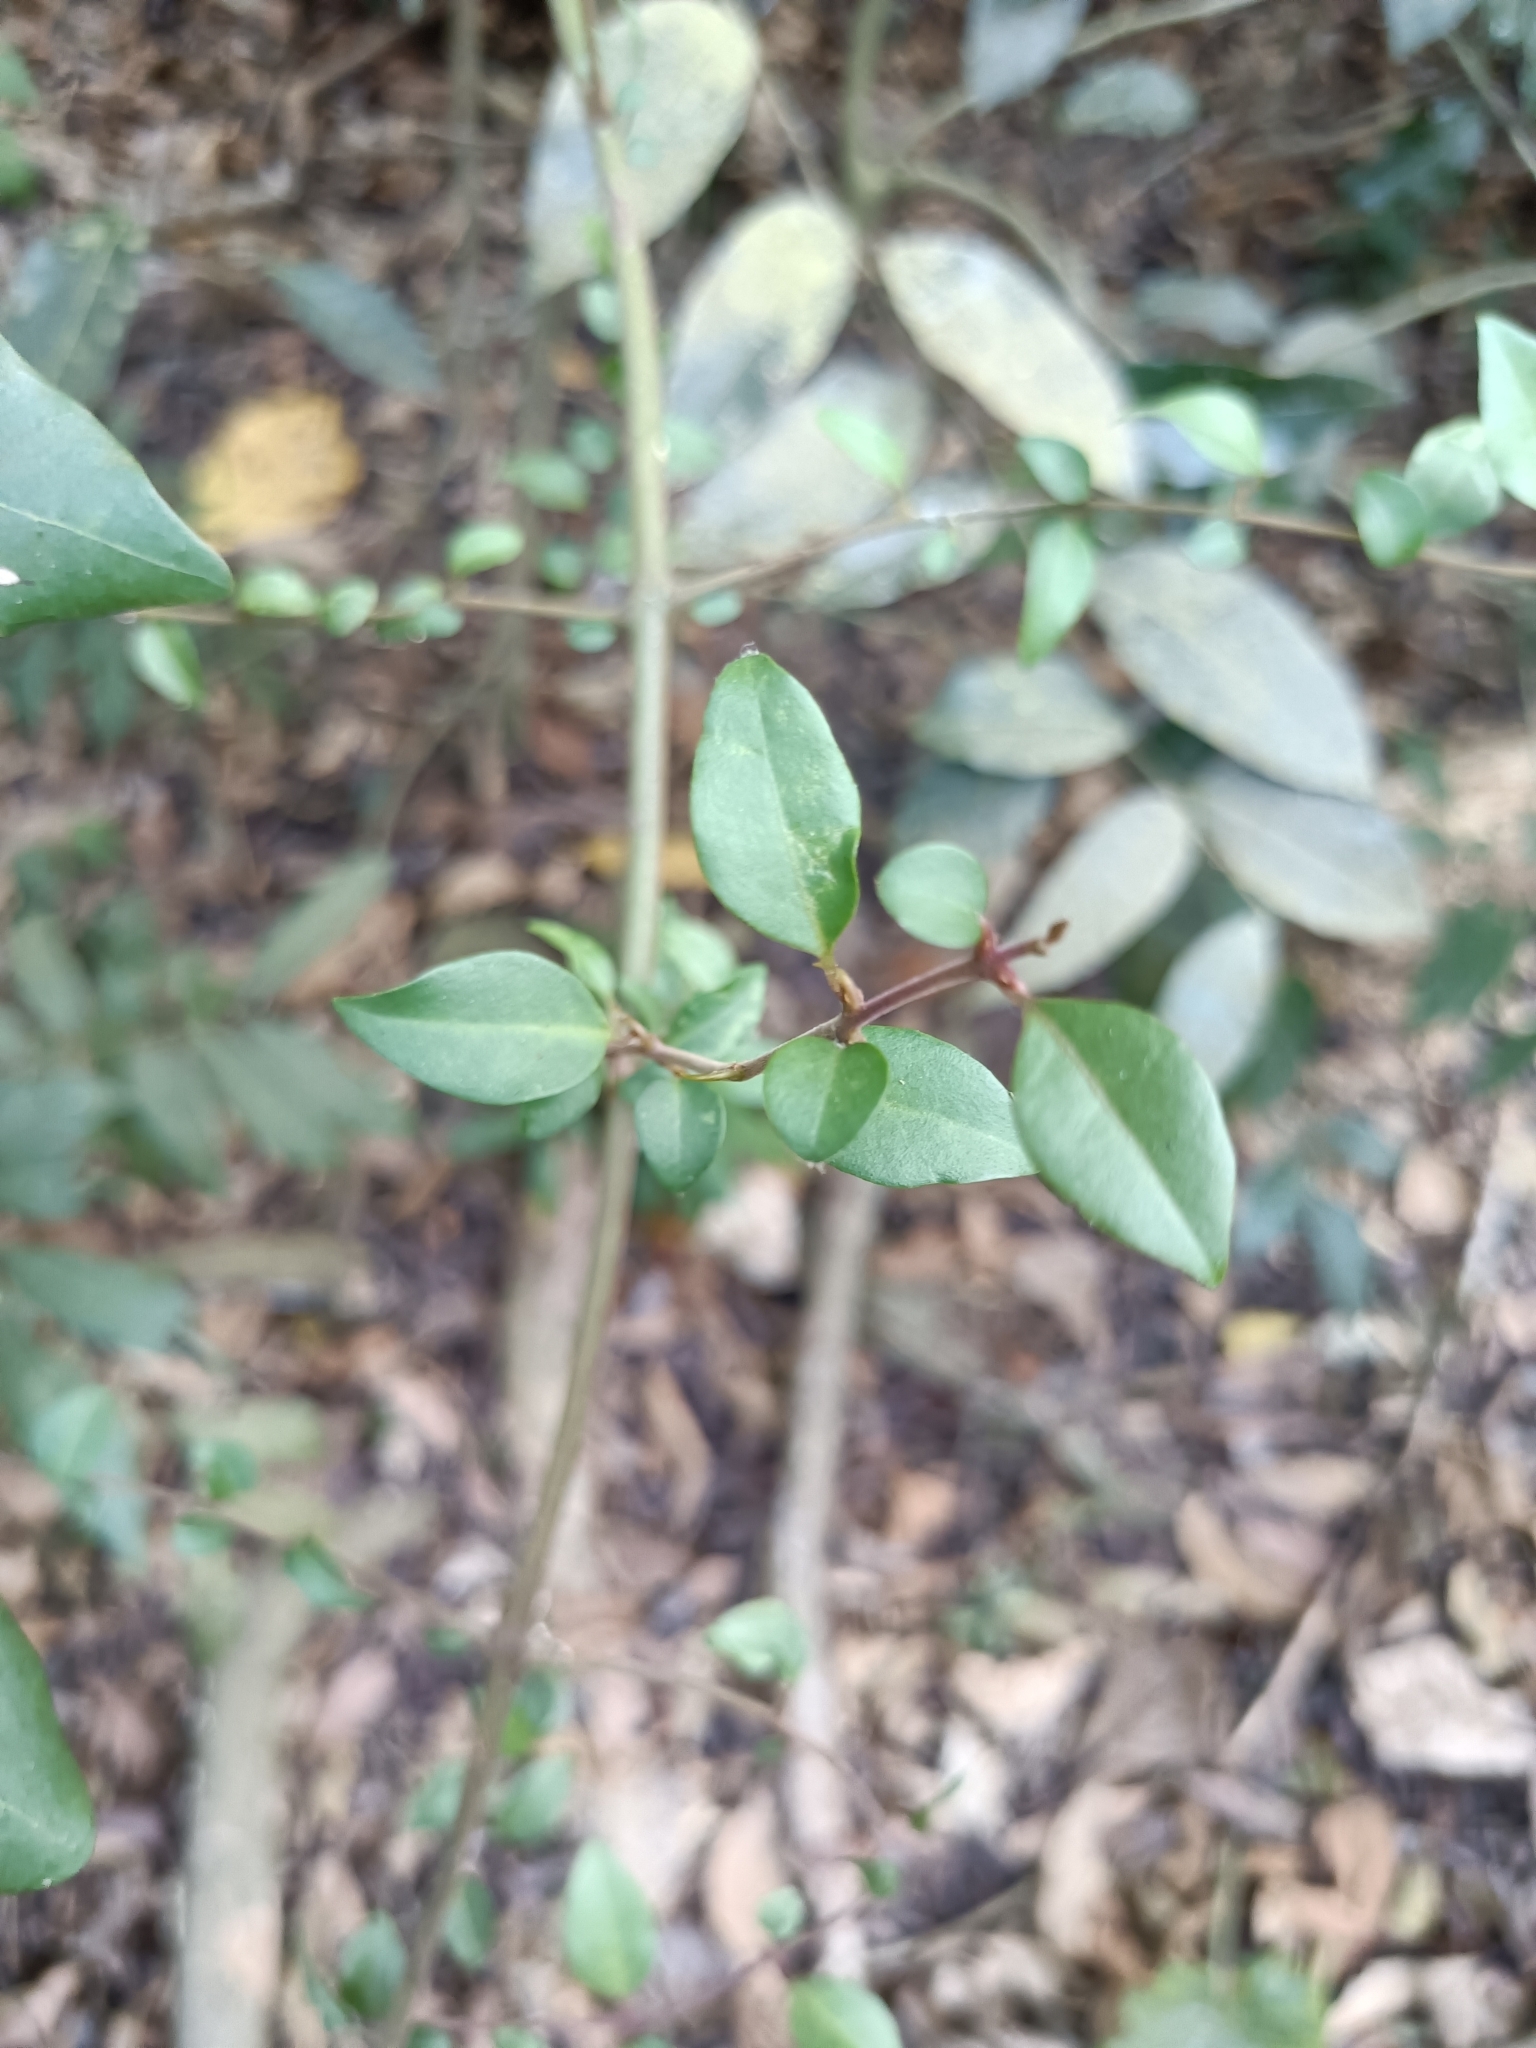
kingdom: Plantae
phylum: Tracheophyta
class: Magnoliopsida
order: Caryophyllales
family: Nyctaginaceae
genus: Pisonia
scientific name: Pisonia aculeata
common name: Cockspur vine
